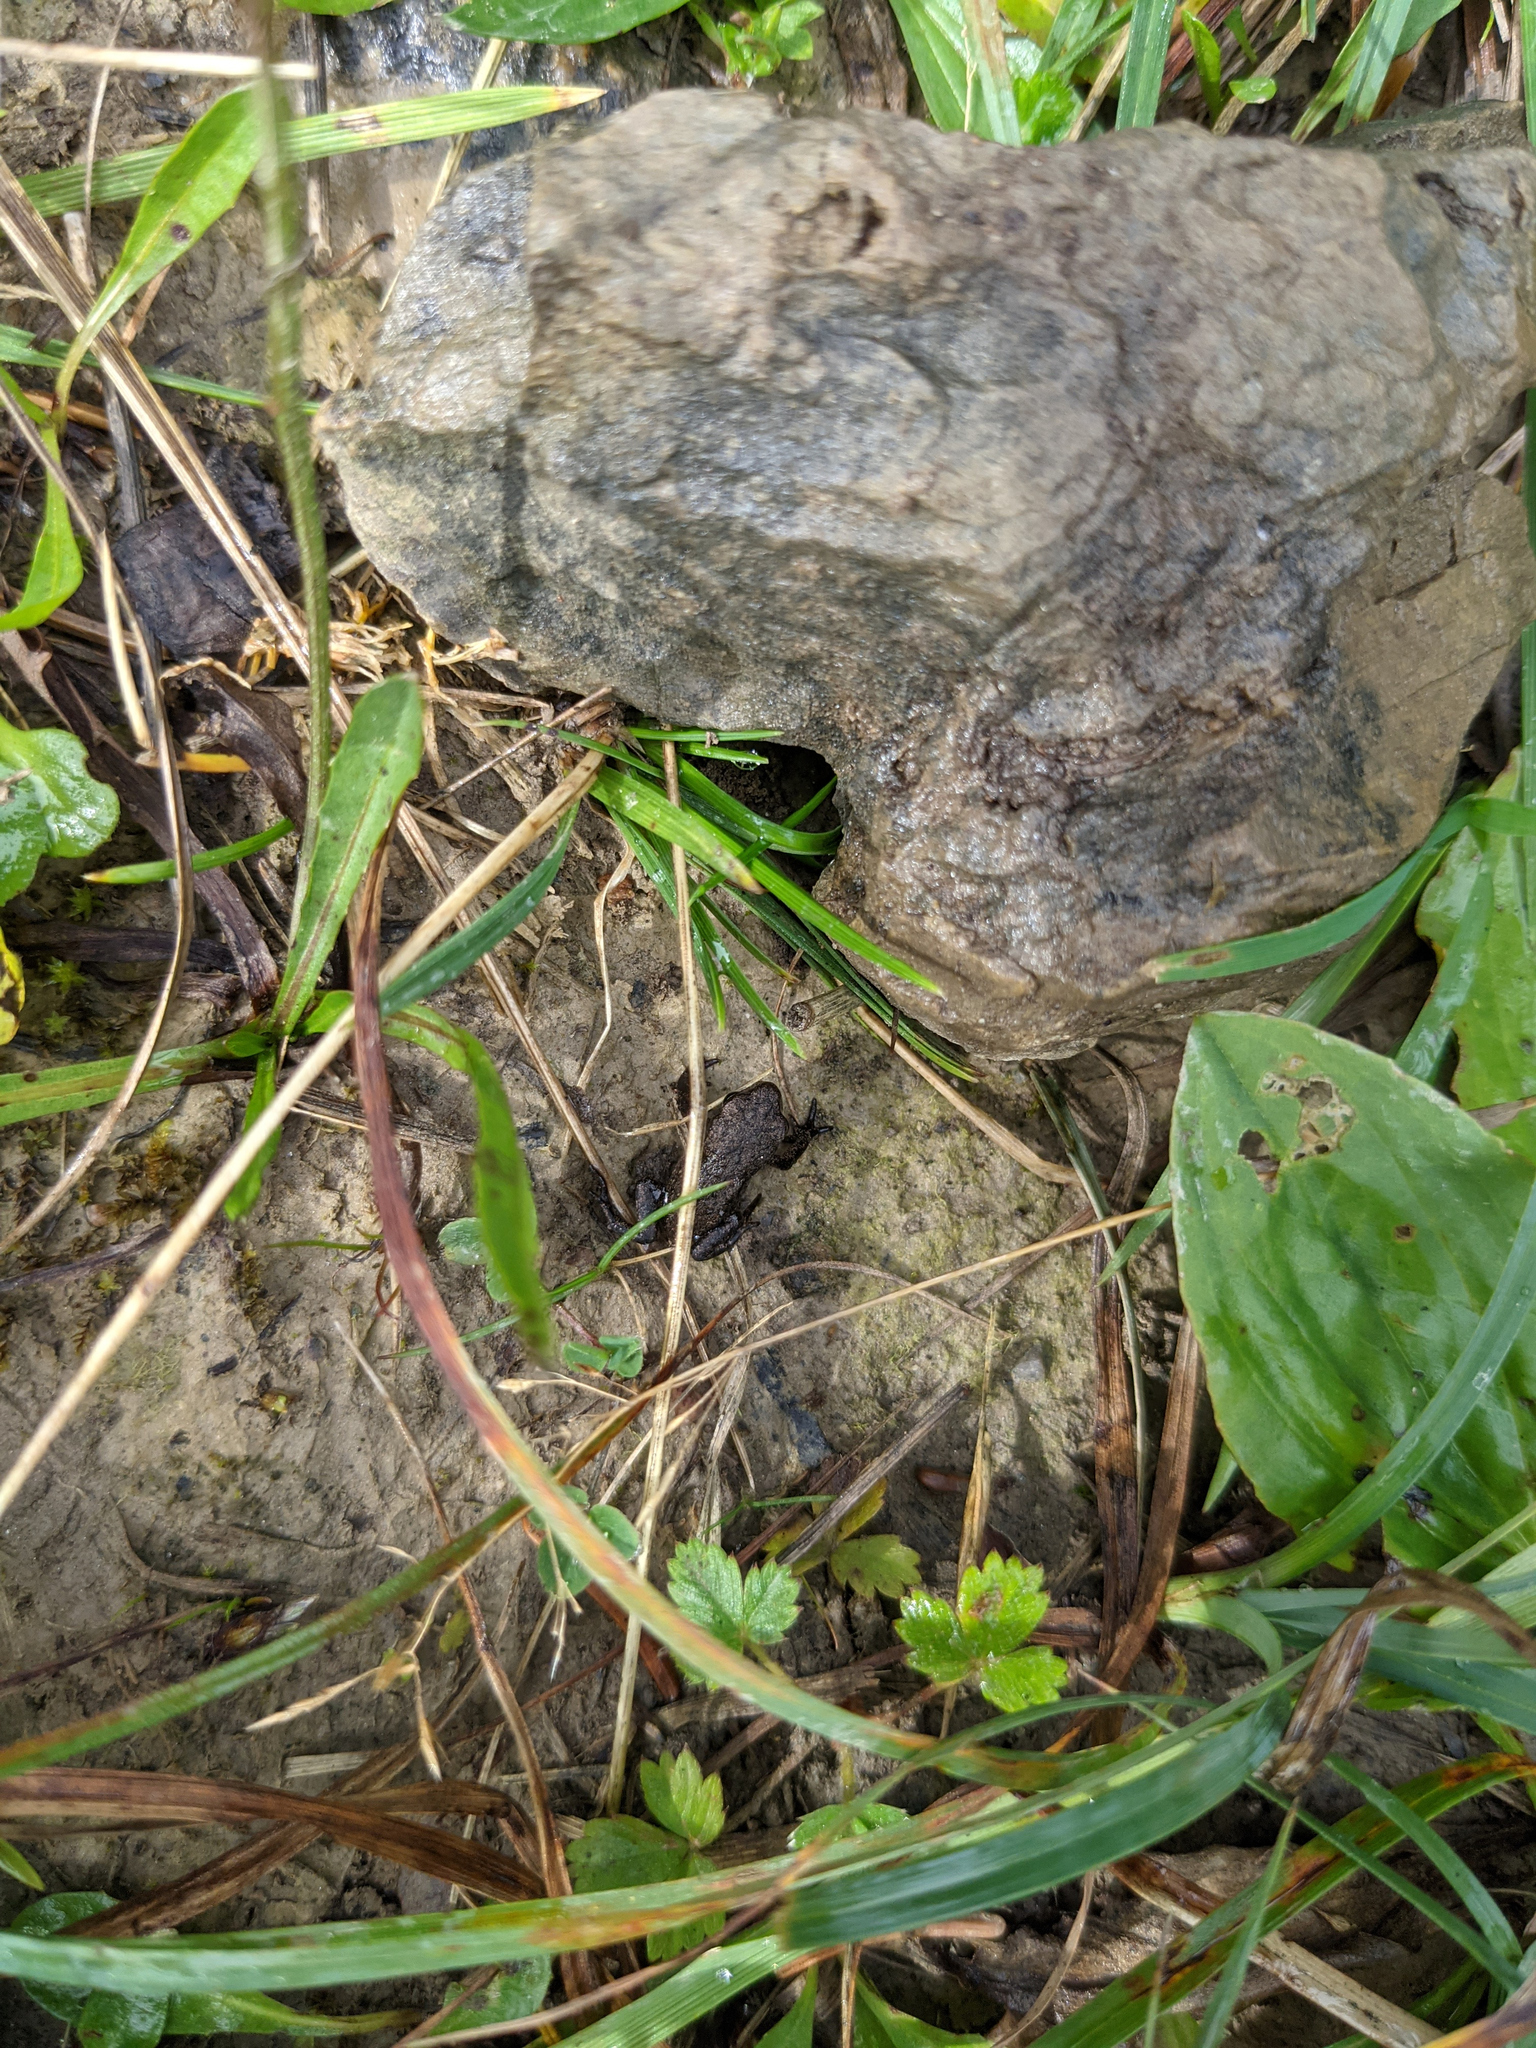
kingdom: Animalia
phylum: Chordata
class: Amphibia
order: Anura
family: Bufonidae
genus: Bufo
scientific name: Bufo bufo
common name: Common toad
